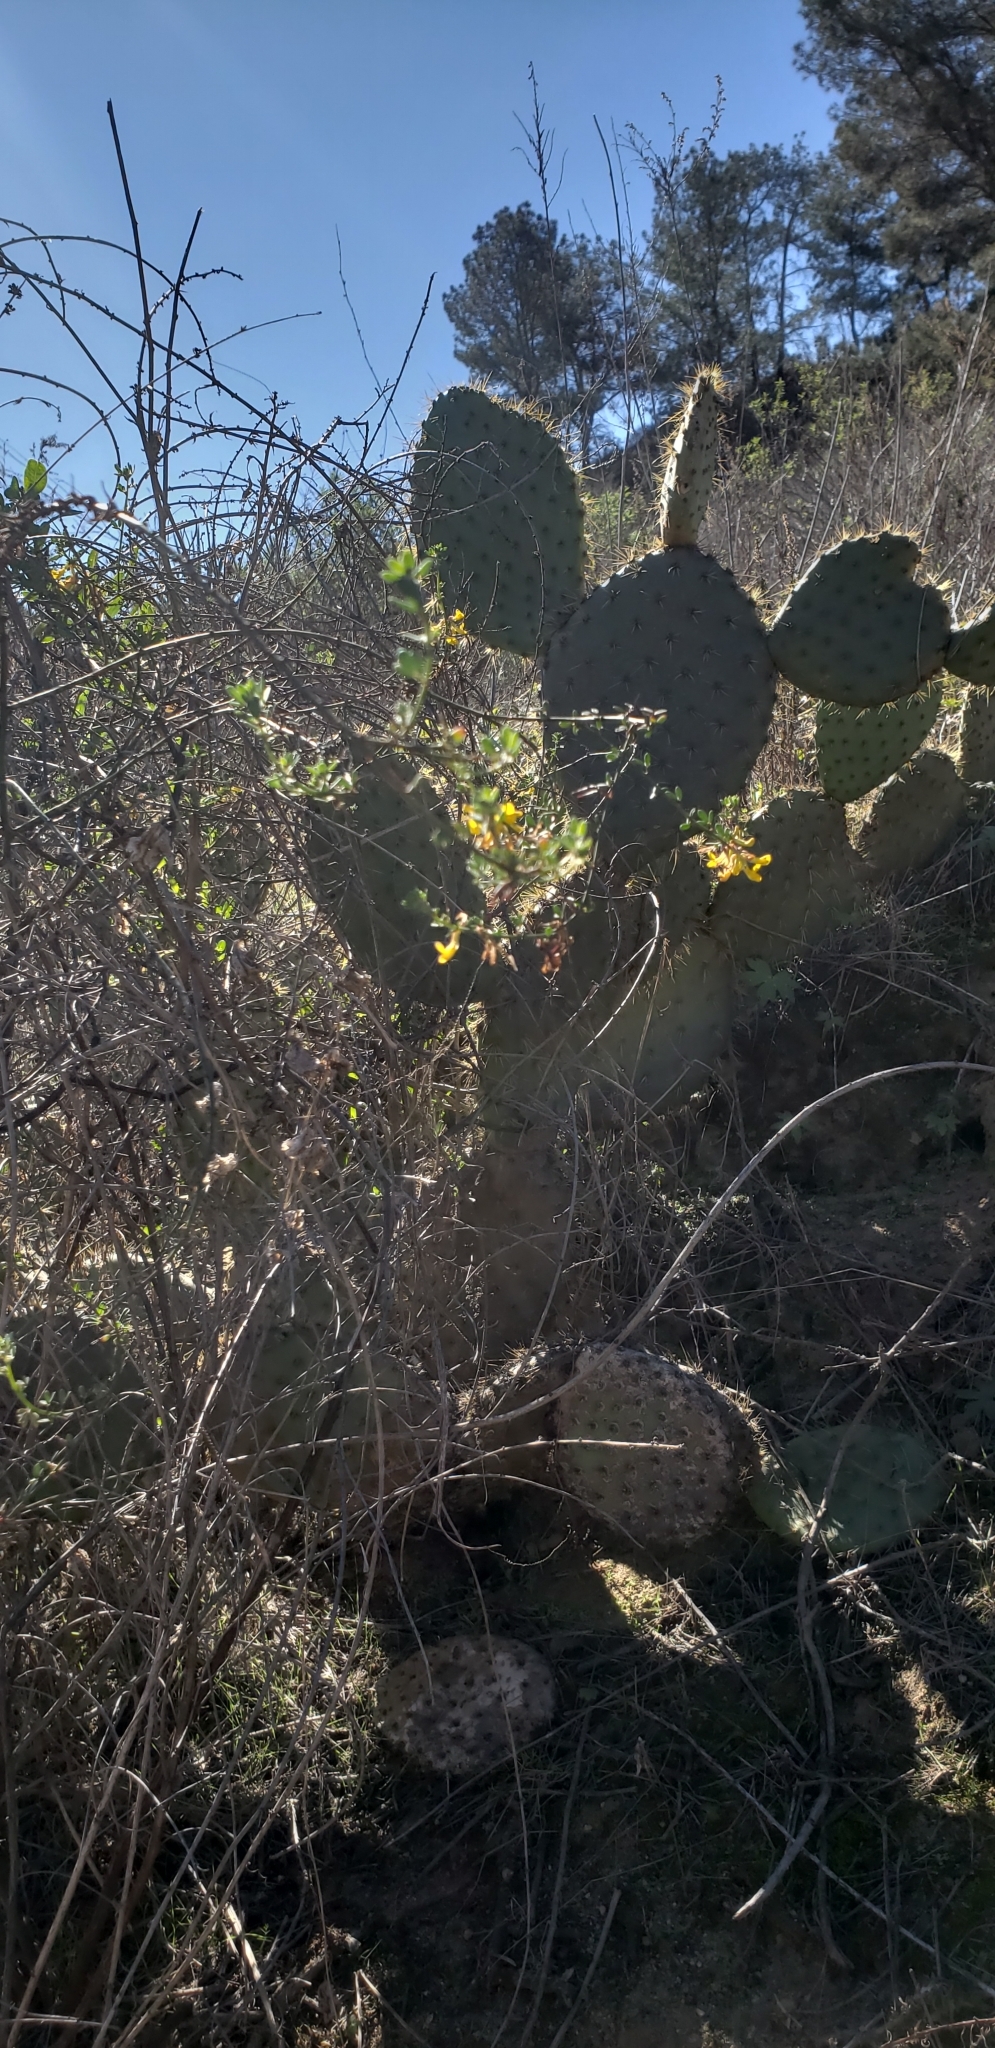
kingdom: Plantae
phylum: Tracheophyta
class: Magnoliopsida
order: Fabales
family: Fabaceae
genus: Acmispon
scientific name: Acmispon glaber
